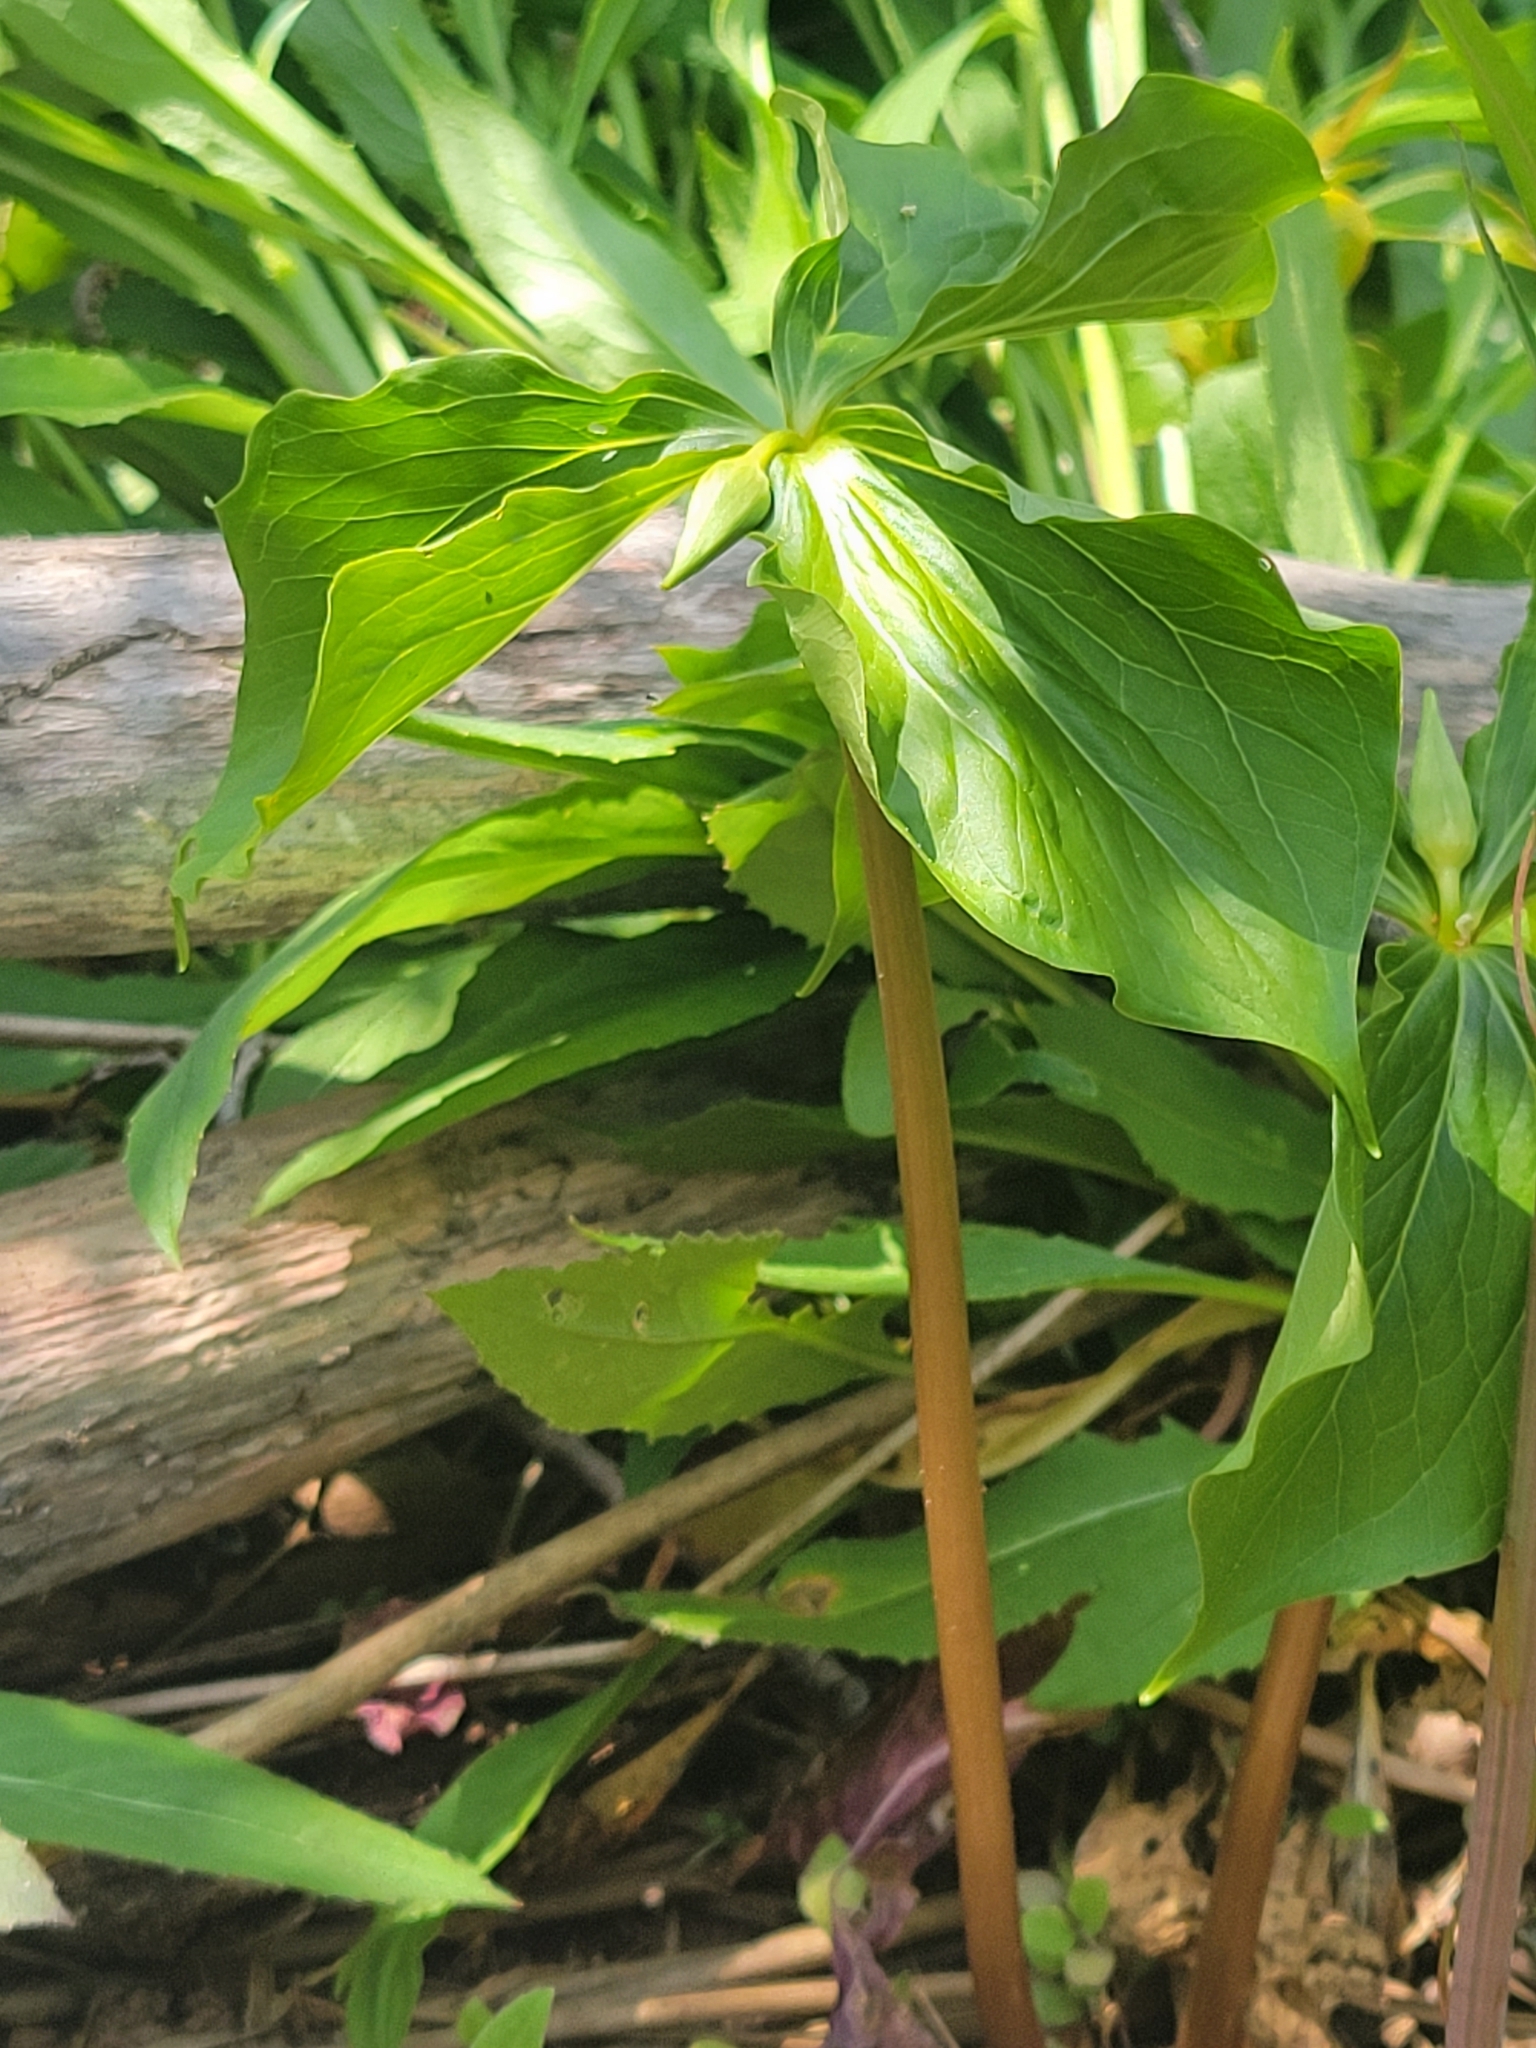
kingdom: Plantae
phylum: Tracheophyta
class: Liliopsida
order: Liliales
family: Melanthiaceae
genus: Trillium
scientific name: Trillium cernuum
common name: Nodding trillium
